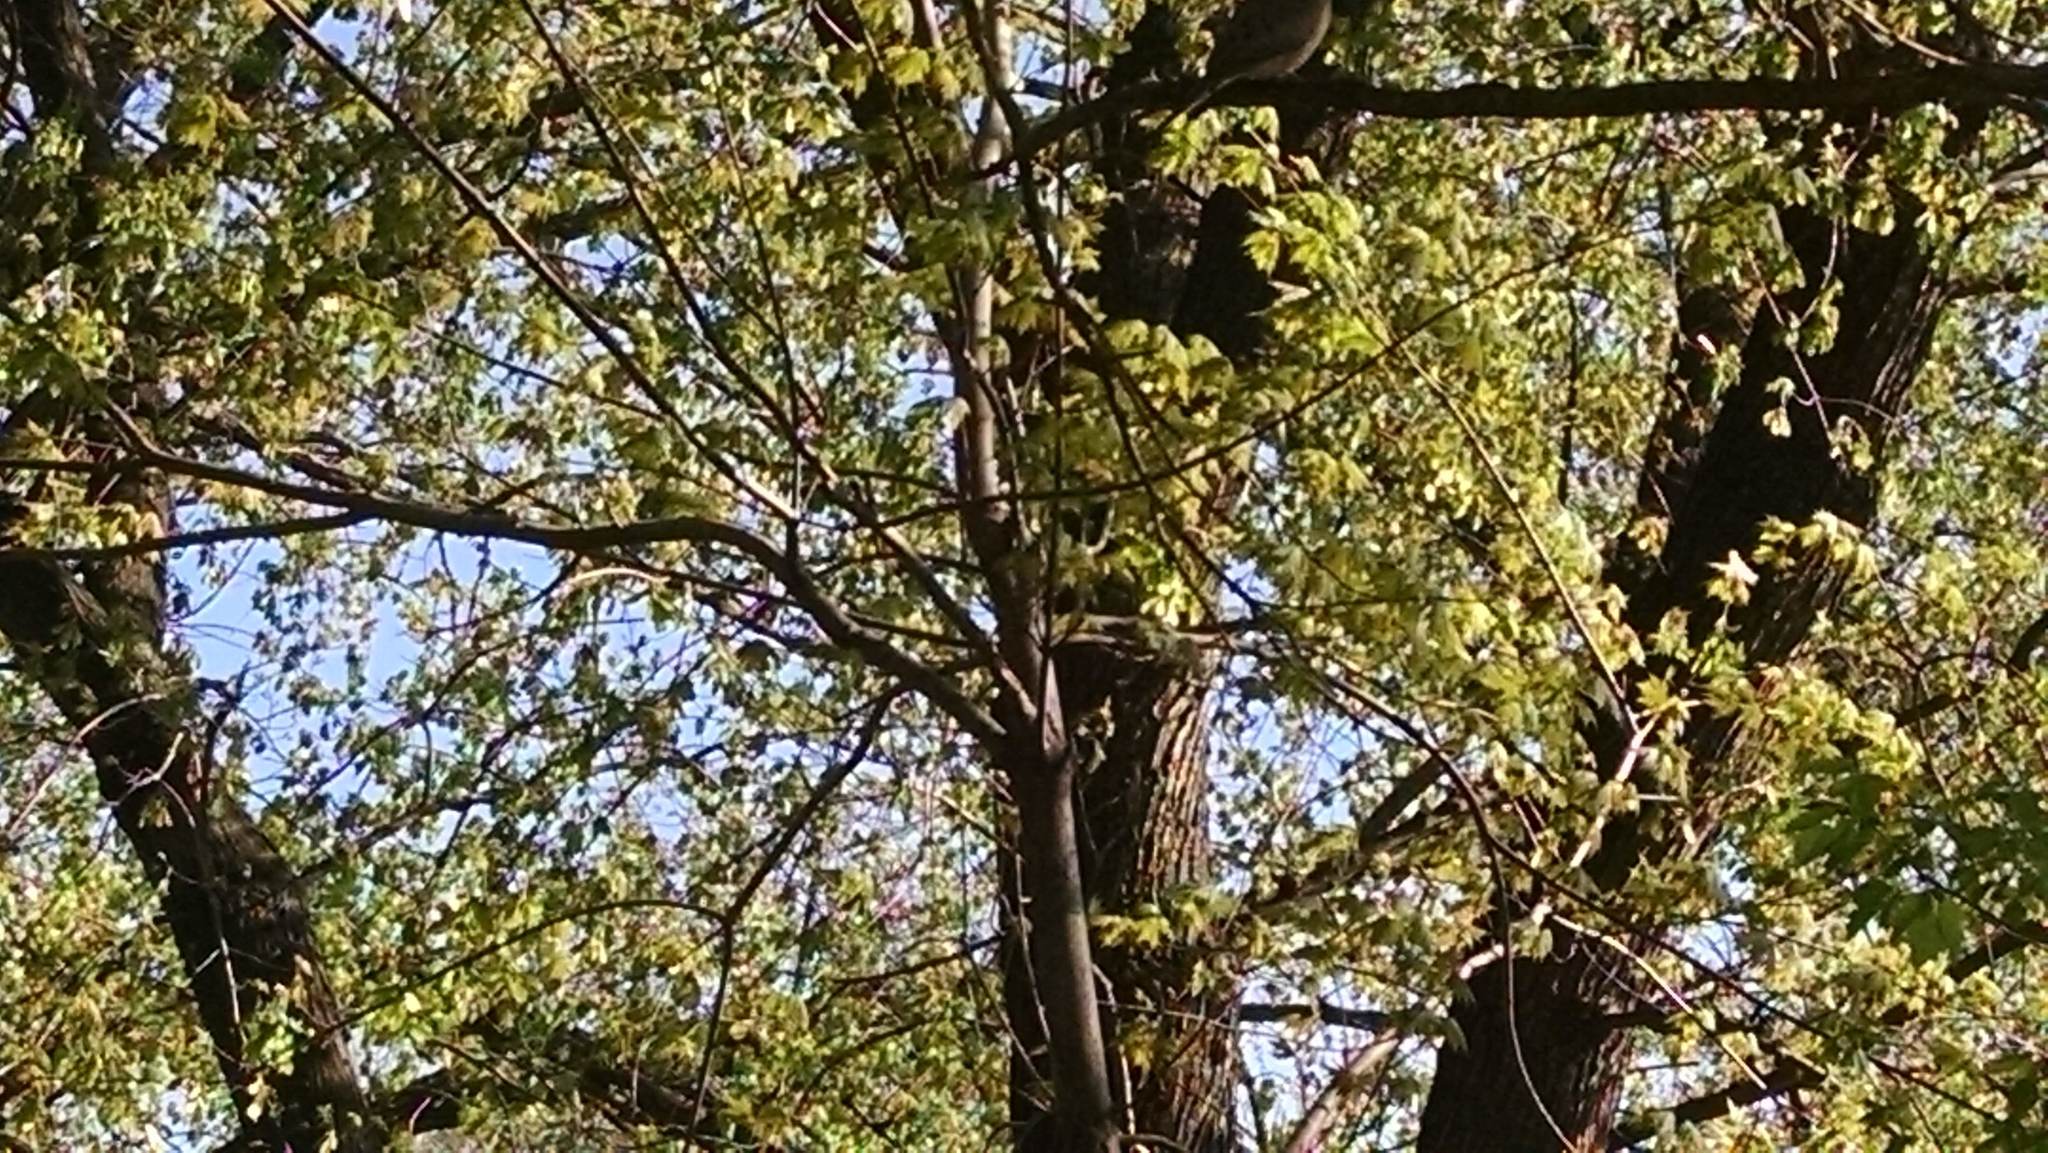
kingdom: Animalia
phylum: Chordata
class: Aves
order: Columbiformes
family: Columbidae
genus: Zenaida
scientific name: Zenaida macroura
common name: Mourning dove
